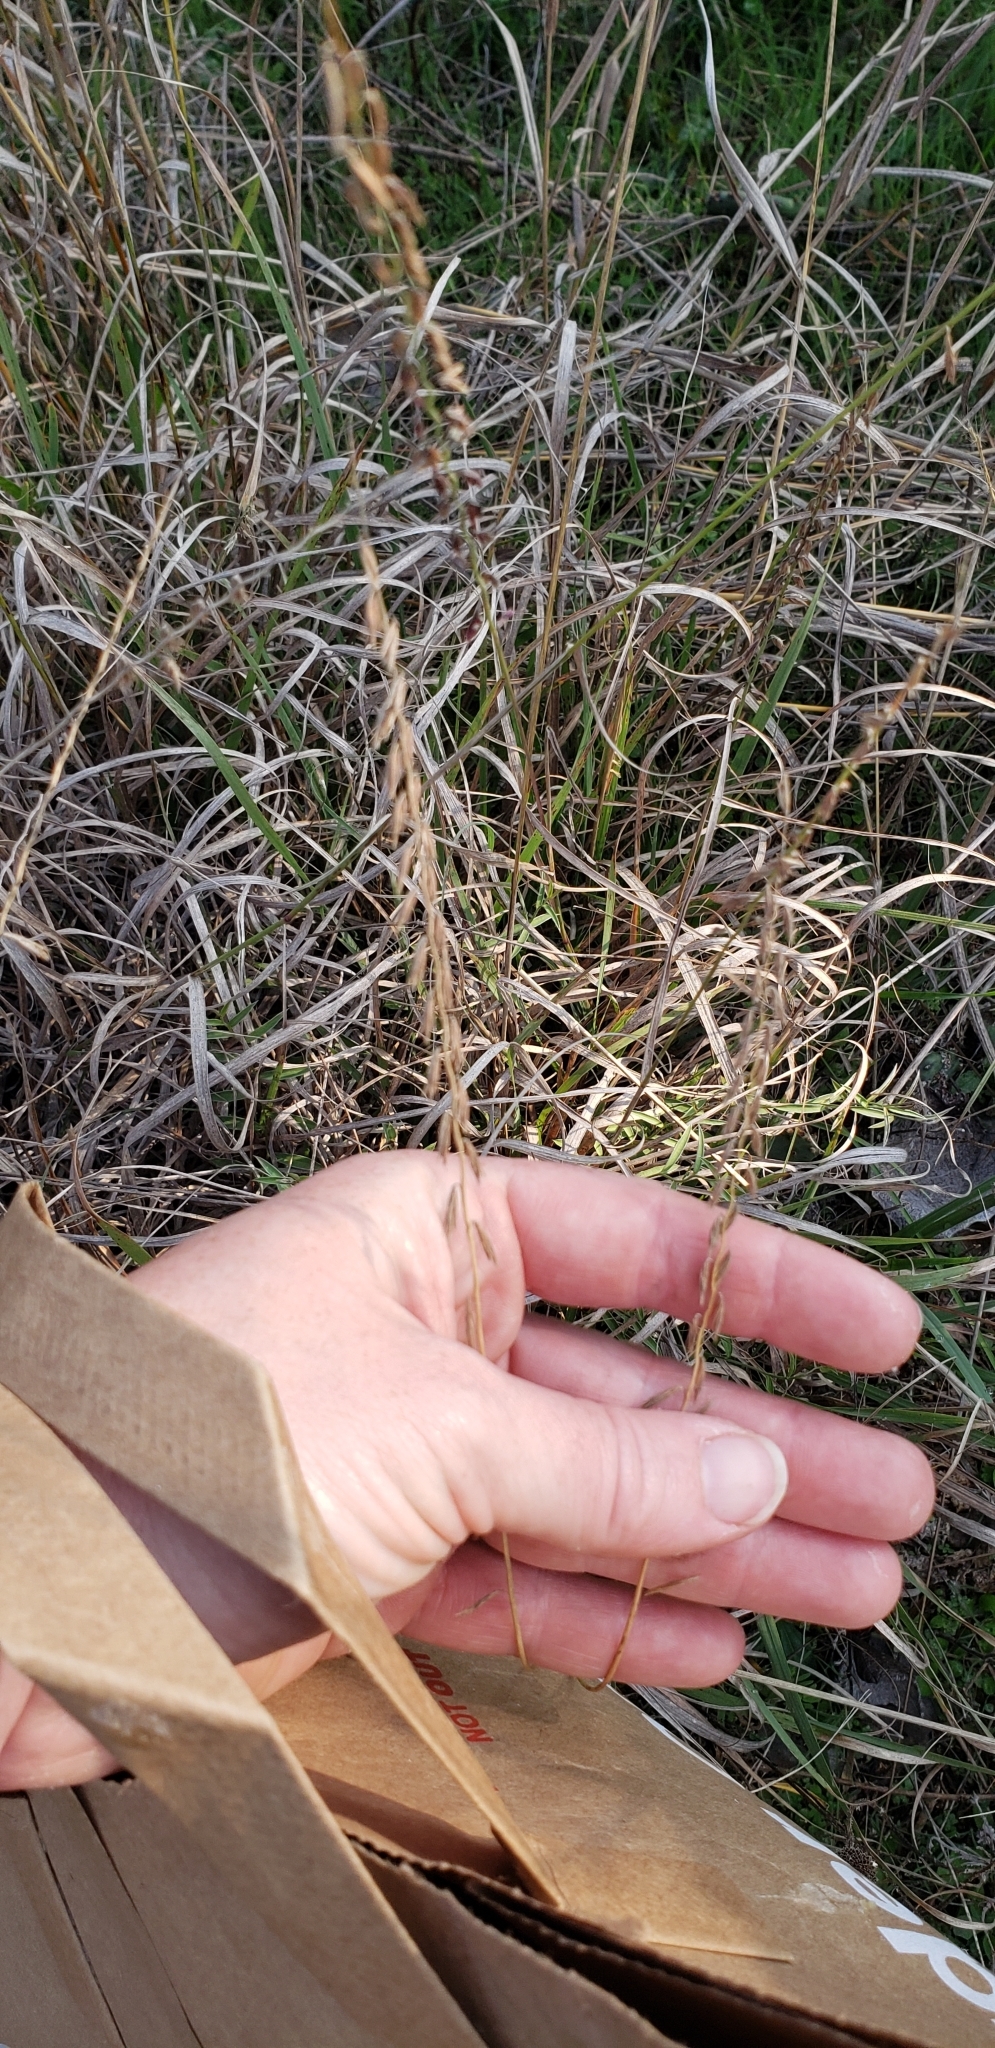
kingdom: Plantae
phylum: Tracheophyta
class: Liliopsida
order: Poales
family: Poaceae
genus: Bouteloua
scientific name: Bouteloua curtipendula
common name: Side-oats grama
